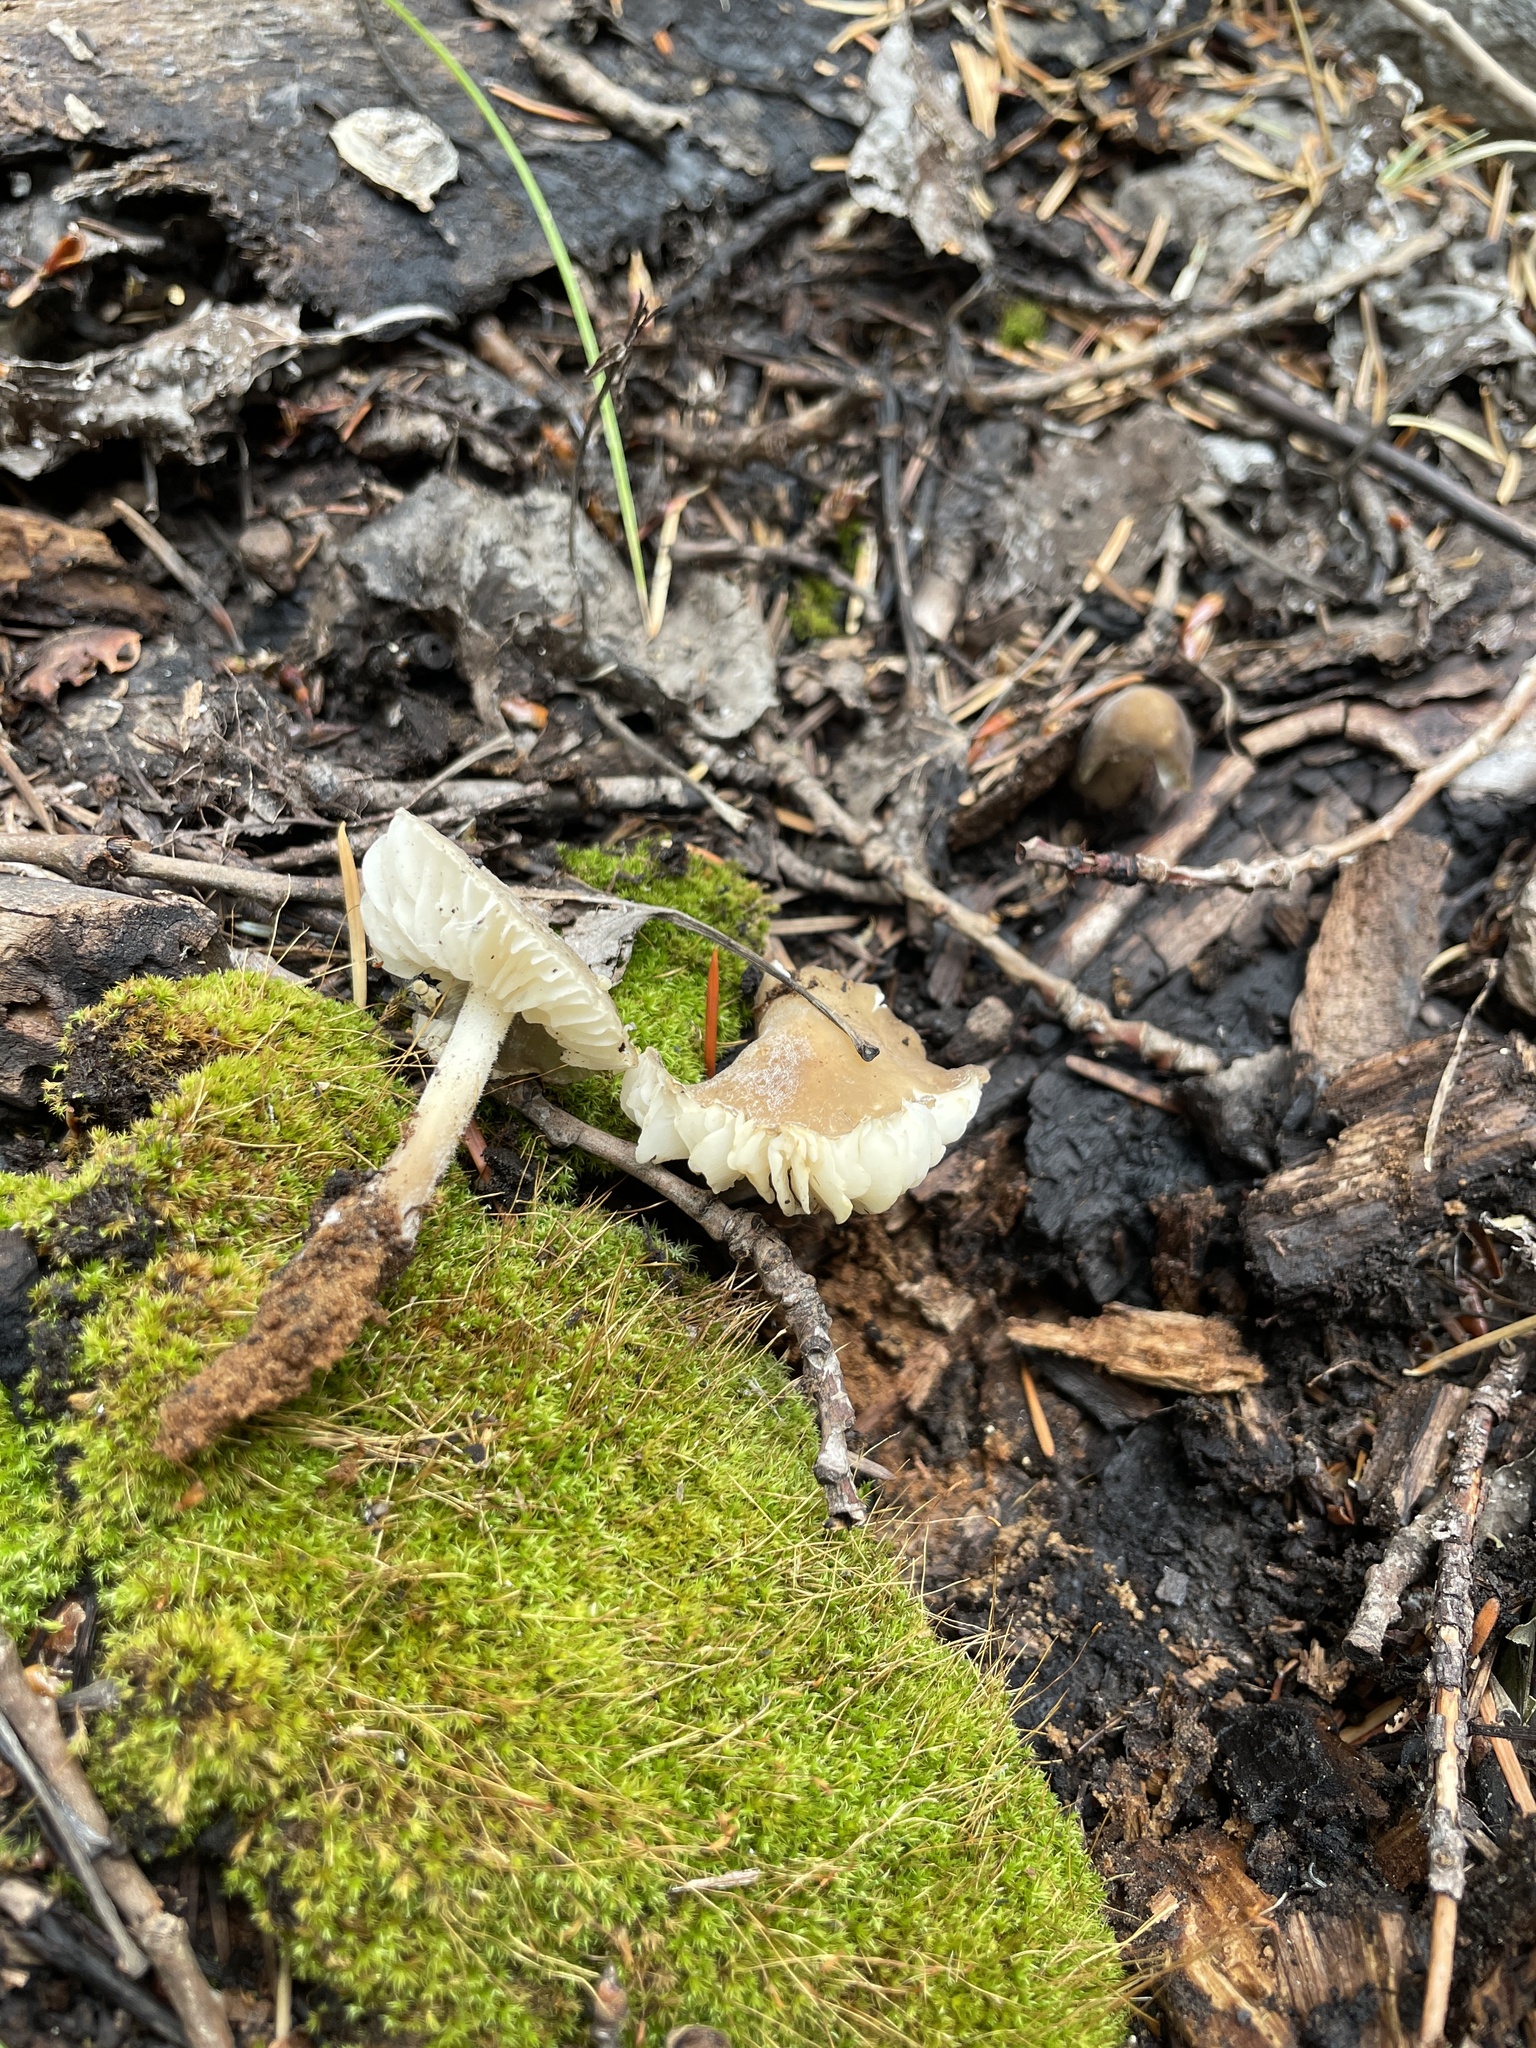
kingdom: Fungi
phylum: Basidiomycota
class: Agaricomycetes
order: Agaricales
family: Physalacriaceae
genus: Paraxerula
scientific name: Paraxerula americana
